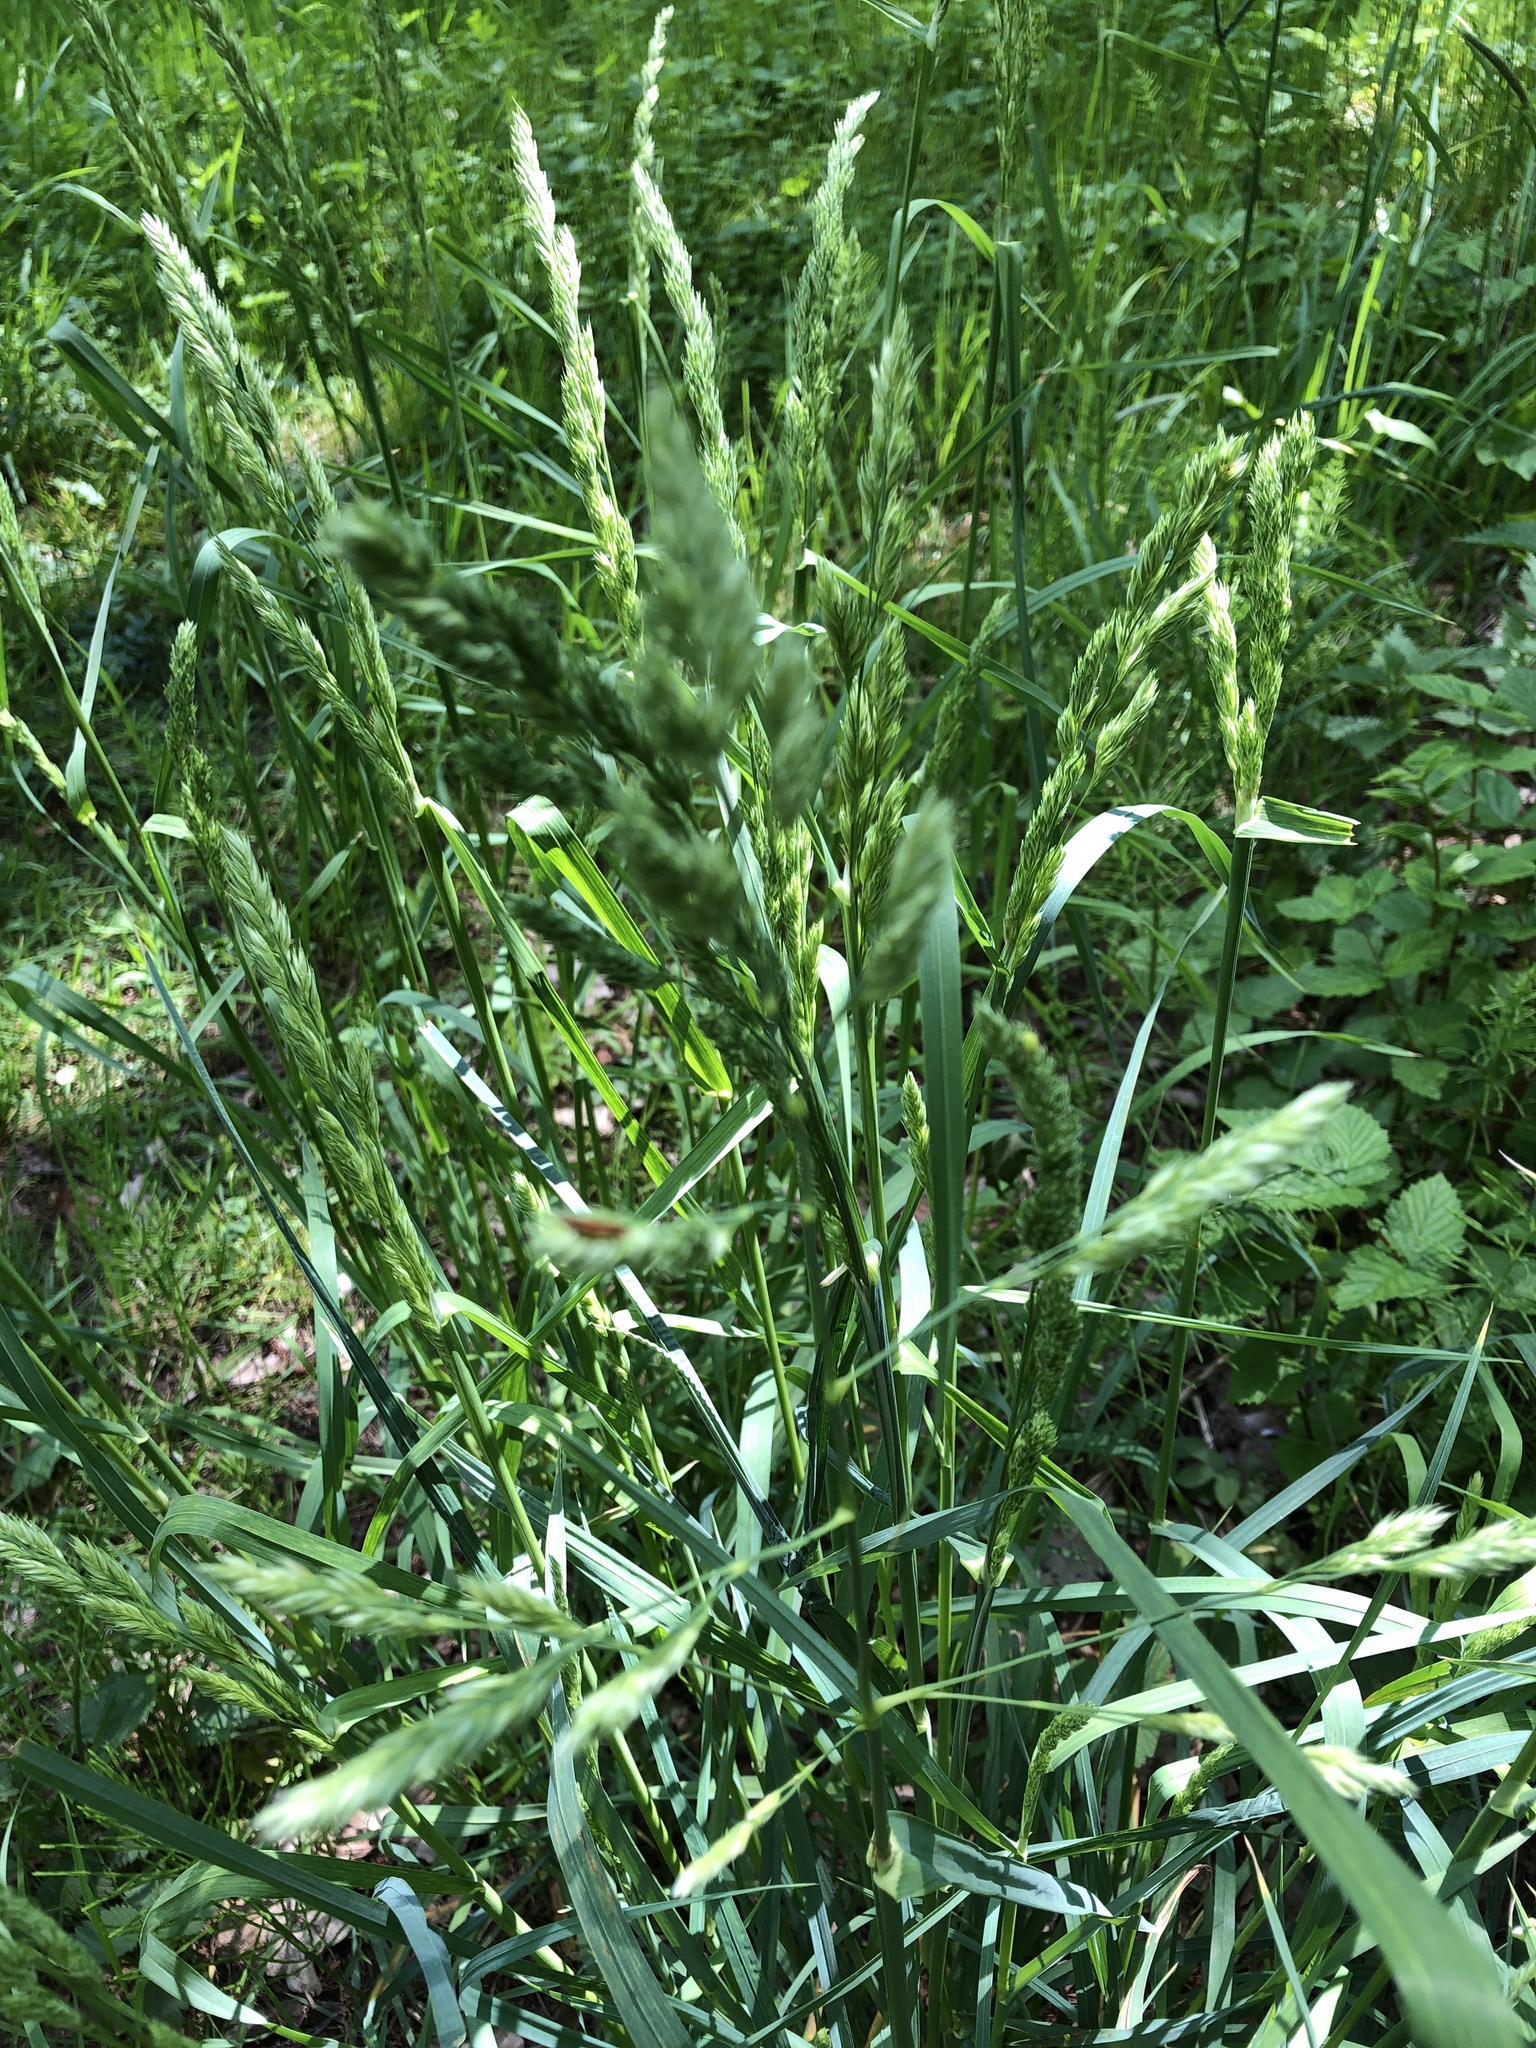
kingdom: Plantae
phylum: Tracheophyta
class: Liliopsida
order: Poales
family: Poaceae
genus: Dactylis
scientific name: Dactylis glomerata
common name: Orchardgrass
